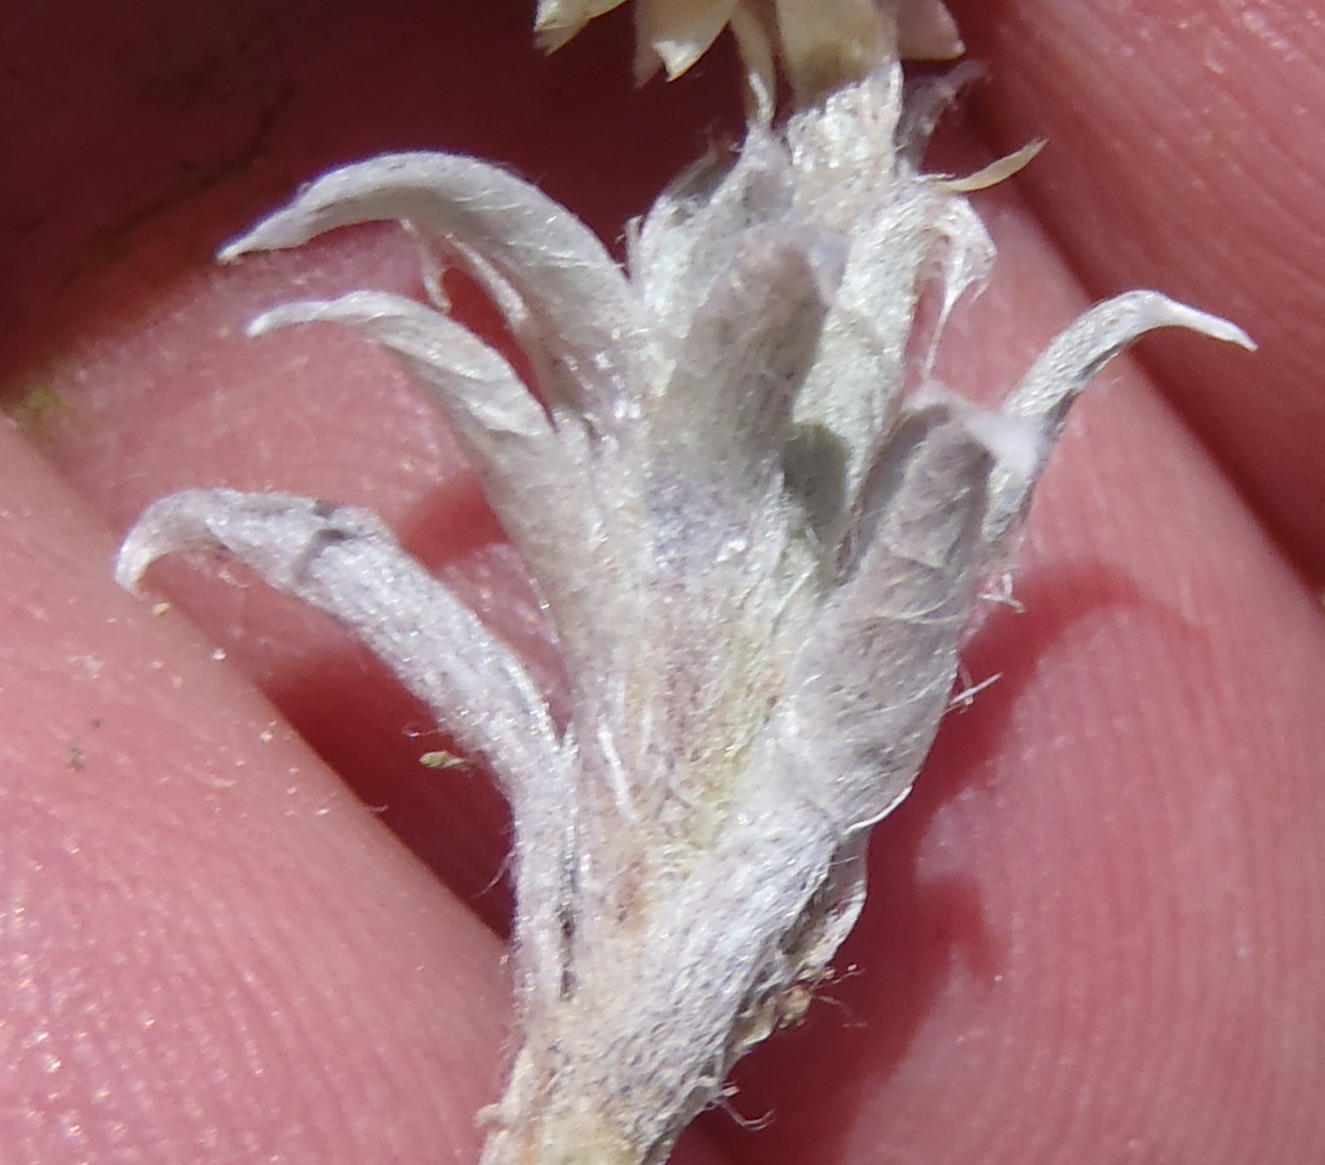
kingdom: Plantae
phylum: Tracheophyta
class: Magnoliopsida
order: Asterales
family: Asteraceae
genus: Helichrysum
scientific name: Helichrysum altigenum
